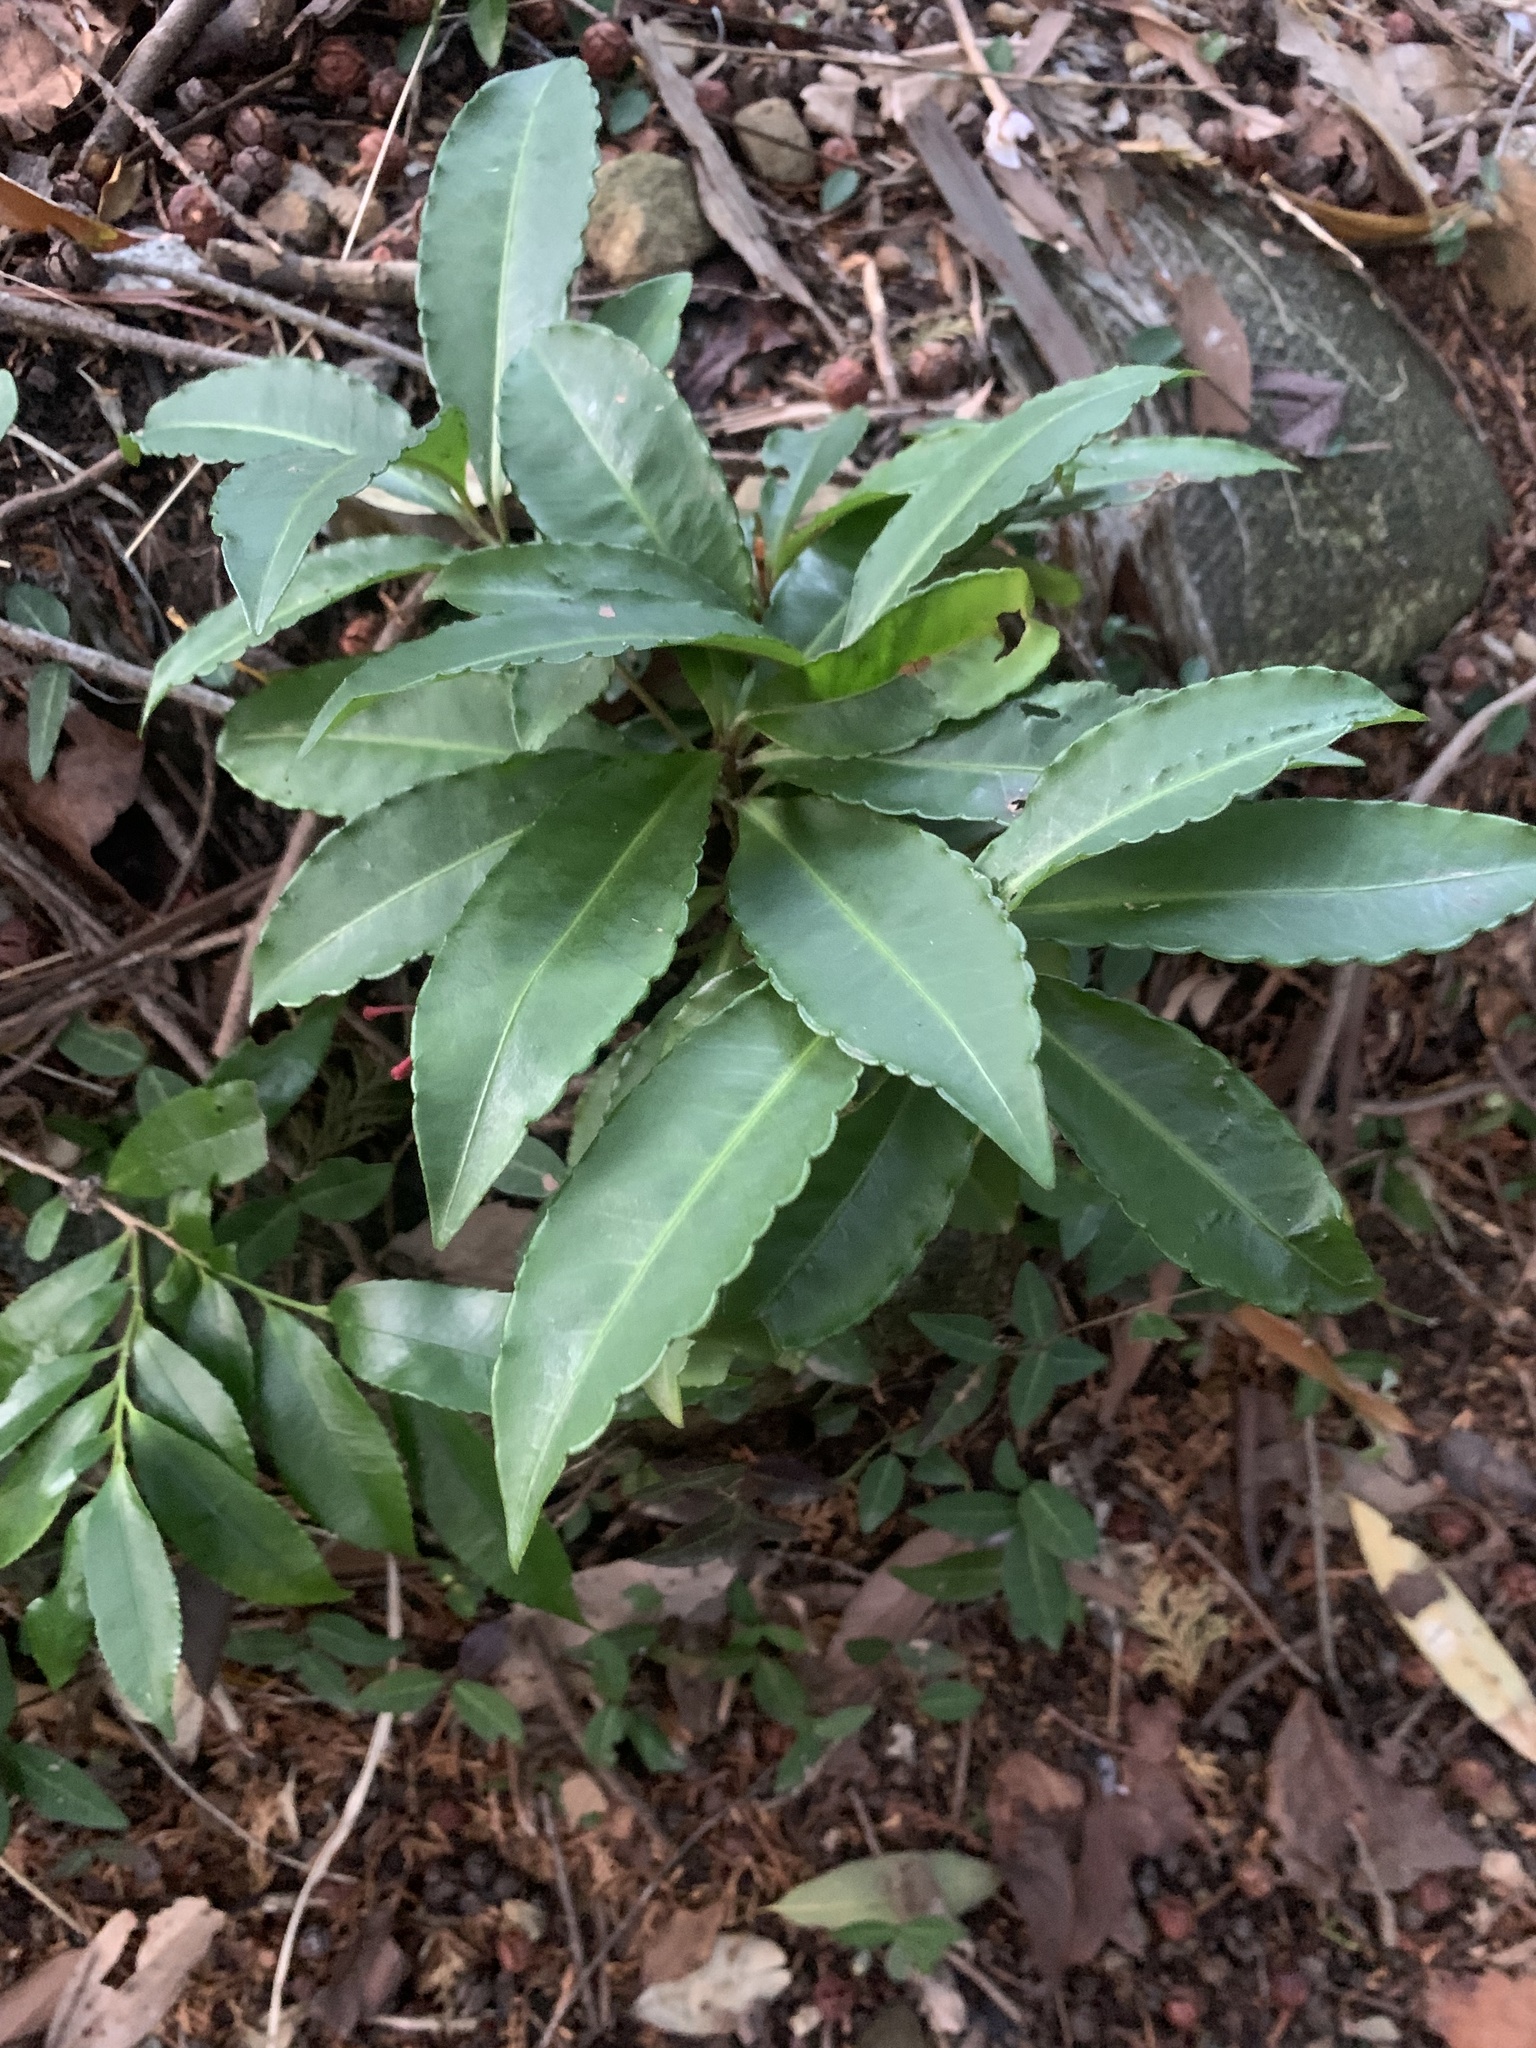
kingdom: Plantae
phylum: Tracheophyta
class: Magnoliopsida
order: Ericales
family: Primulaceae
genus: Ardisia
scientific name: Ardisia crenata
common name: Hen's eyes
